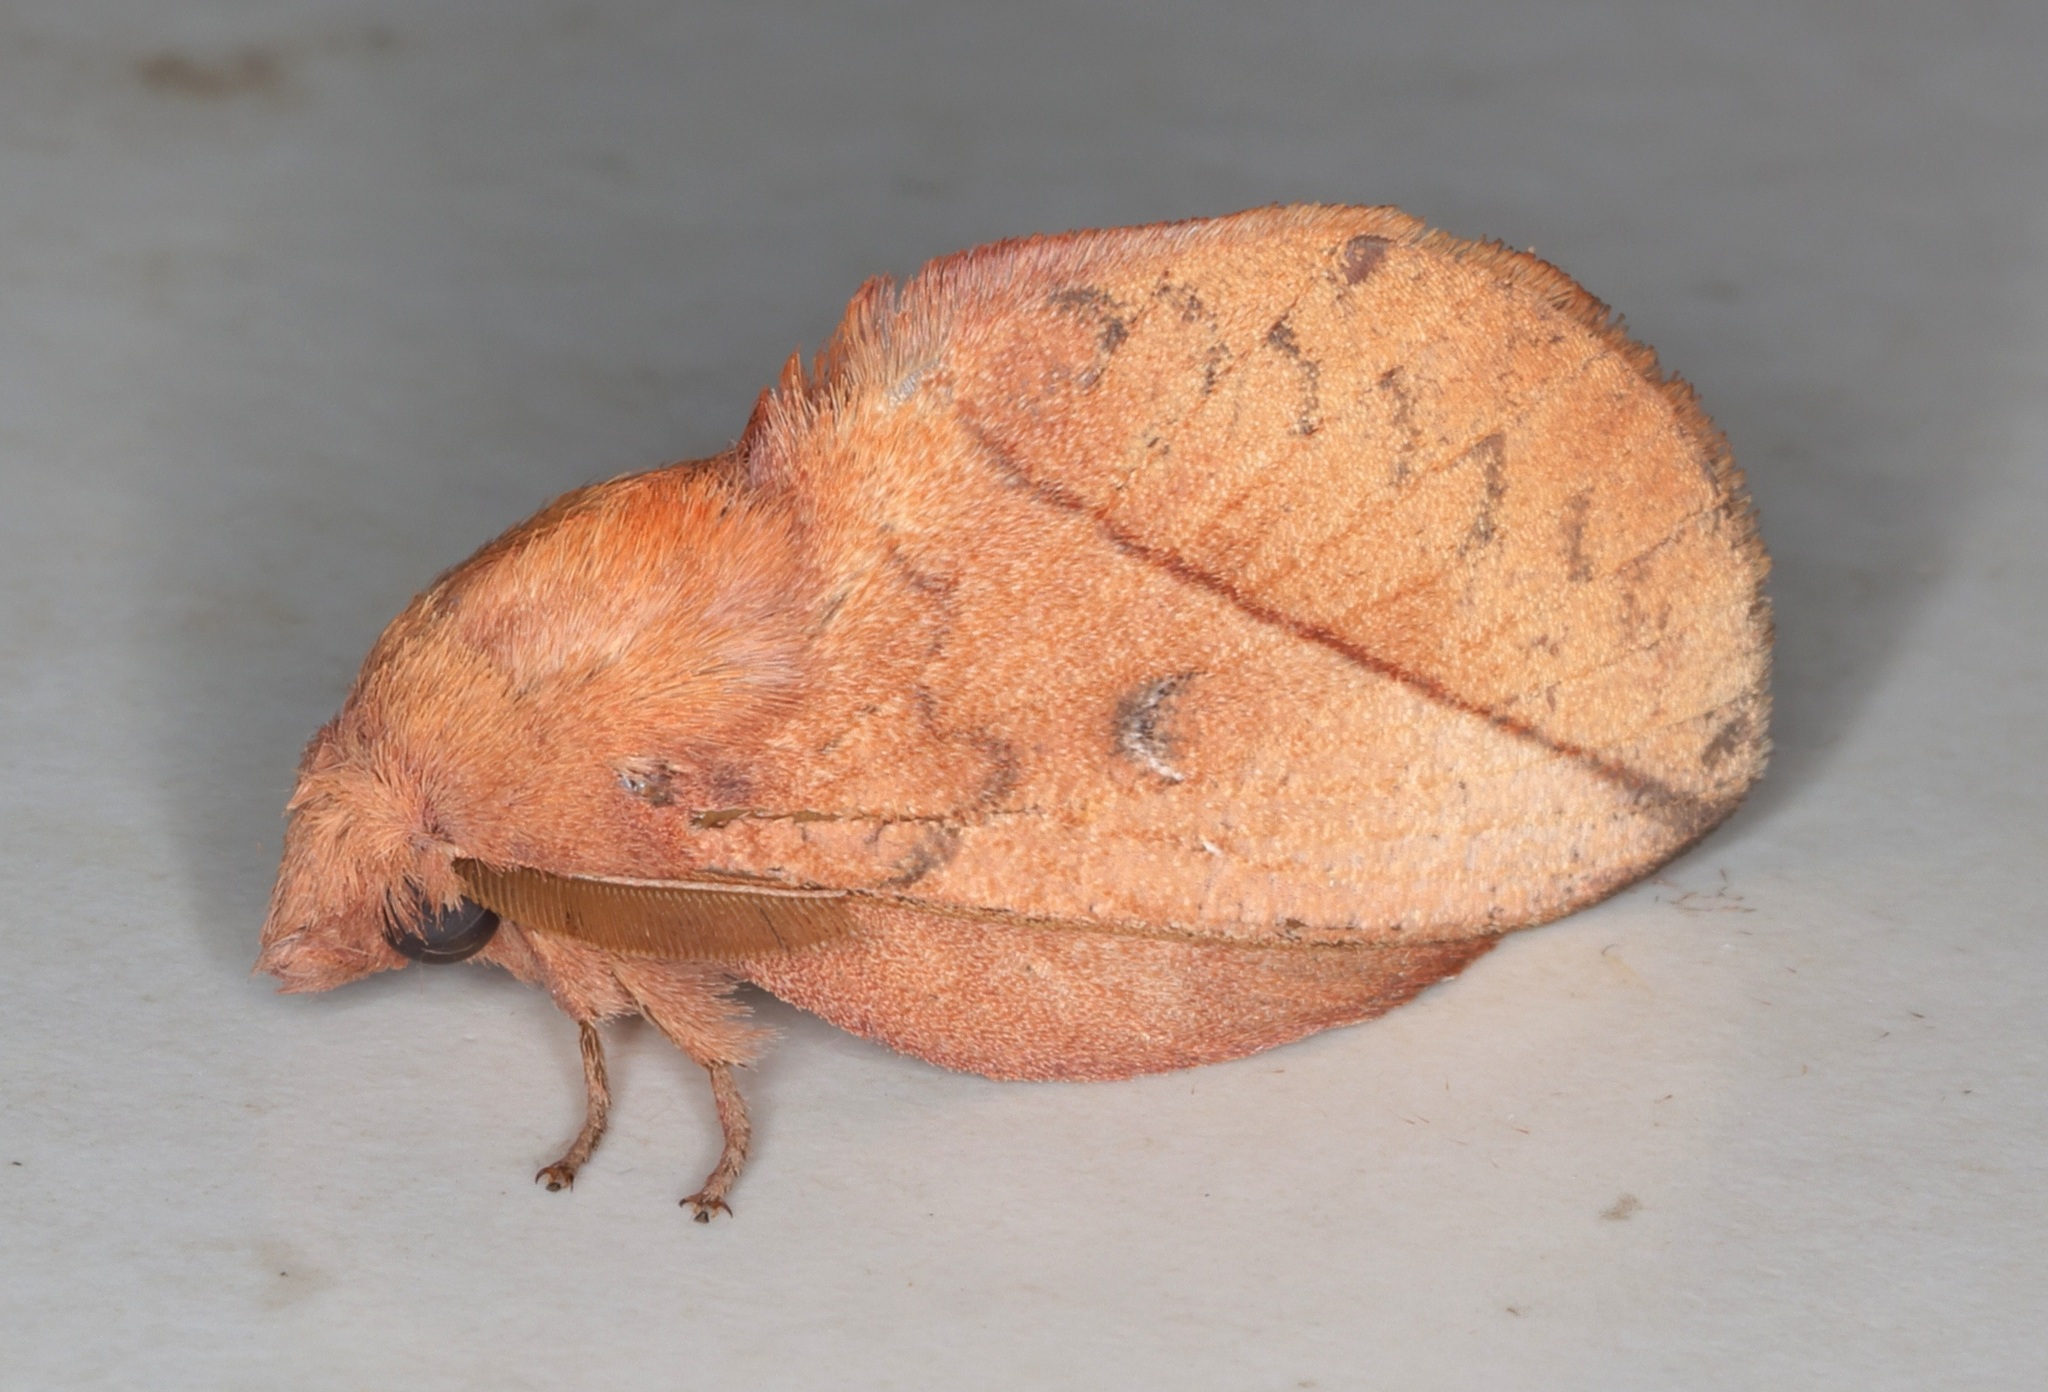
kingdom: Animalia
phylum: Arthropoda
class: Insecta
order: Lepidoptera
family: Lasiocampidae
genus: Euthrix
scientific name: Euthrix isocyma
